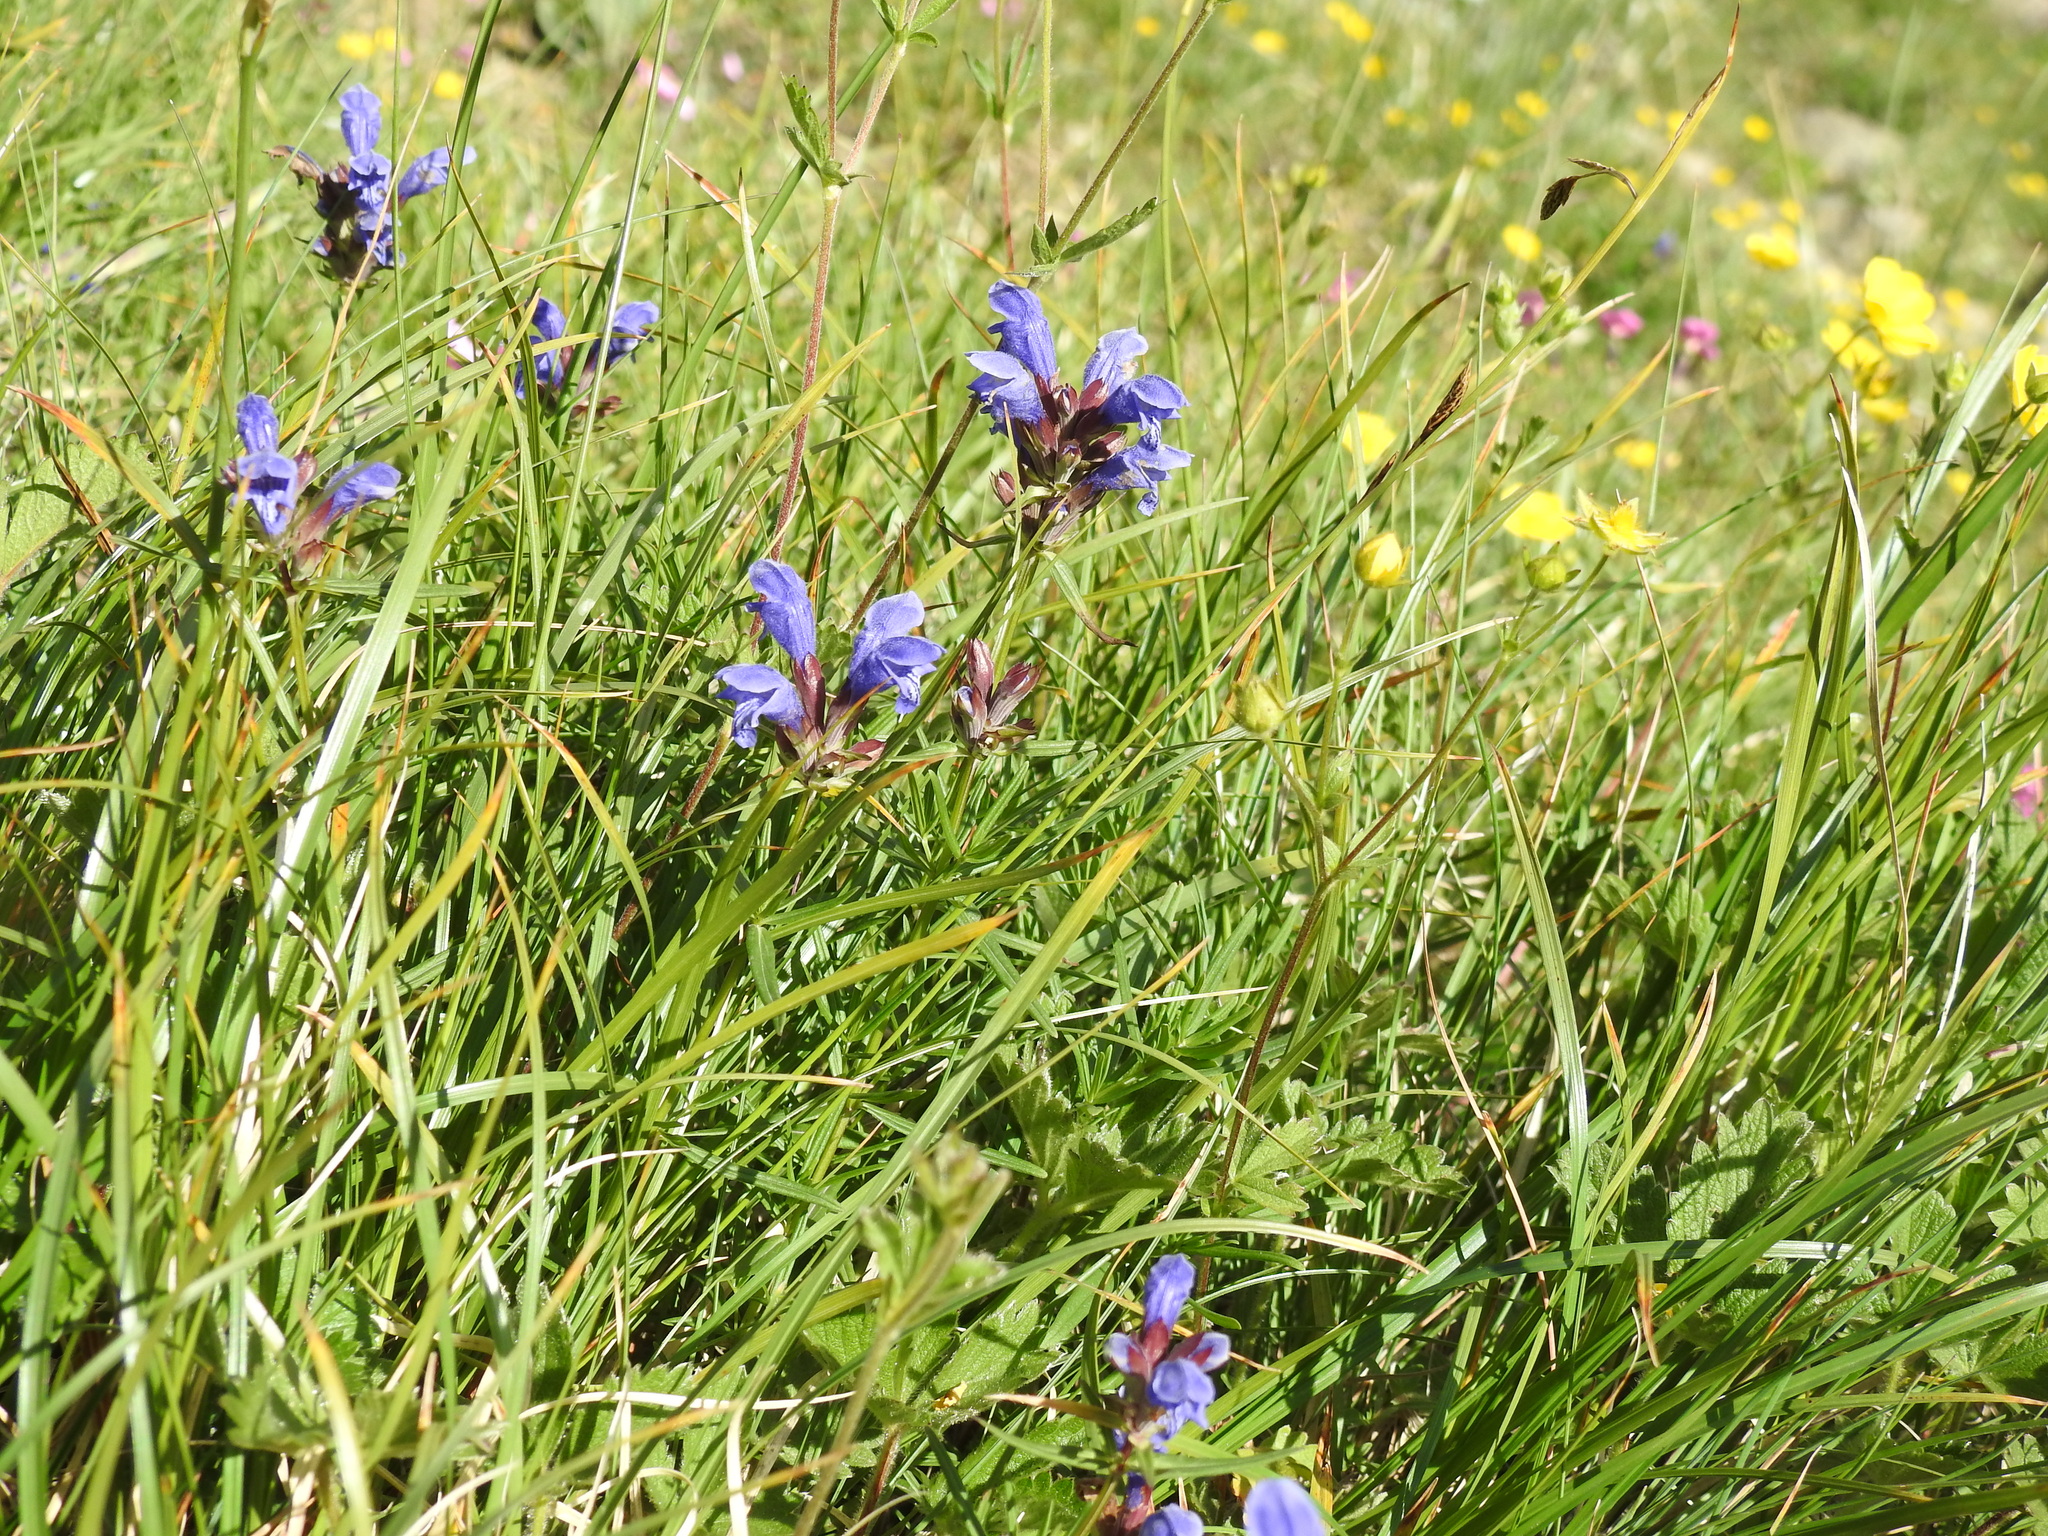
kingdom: Plantae
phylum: Tracheophyta
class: Magnoliopsida
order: Lamiales
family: Lamiaceae
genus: Dracocephalum
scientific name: Dracocephalum ruyschiana
